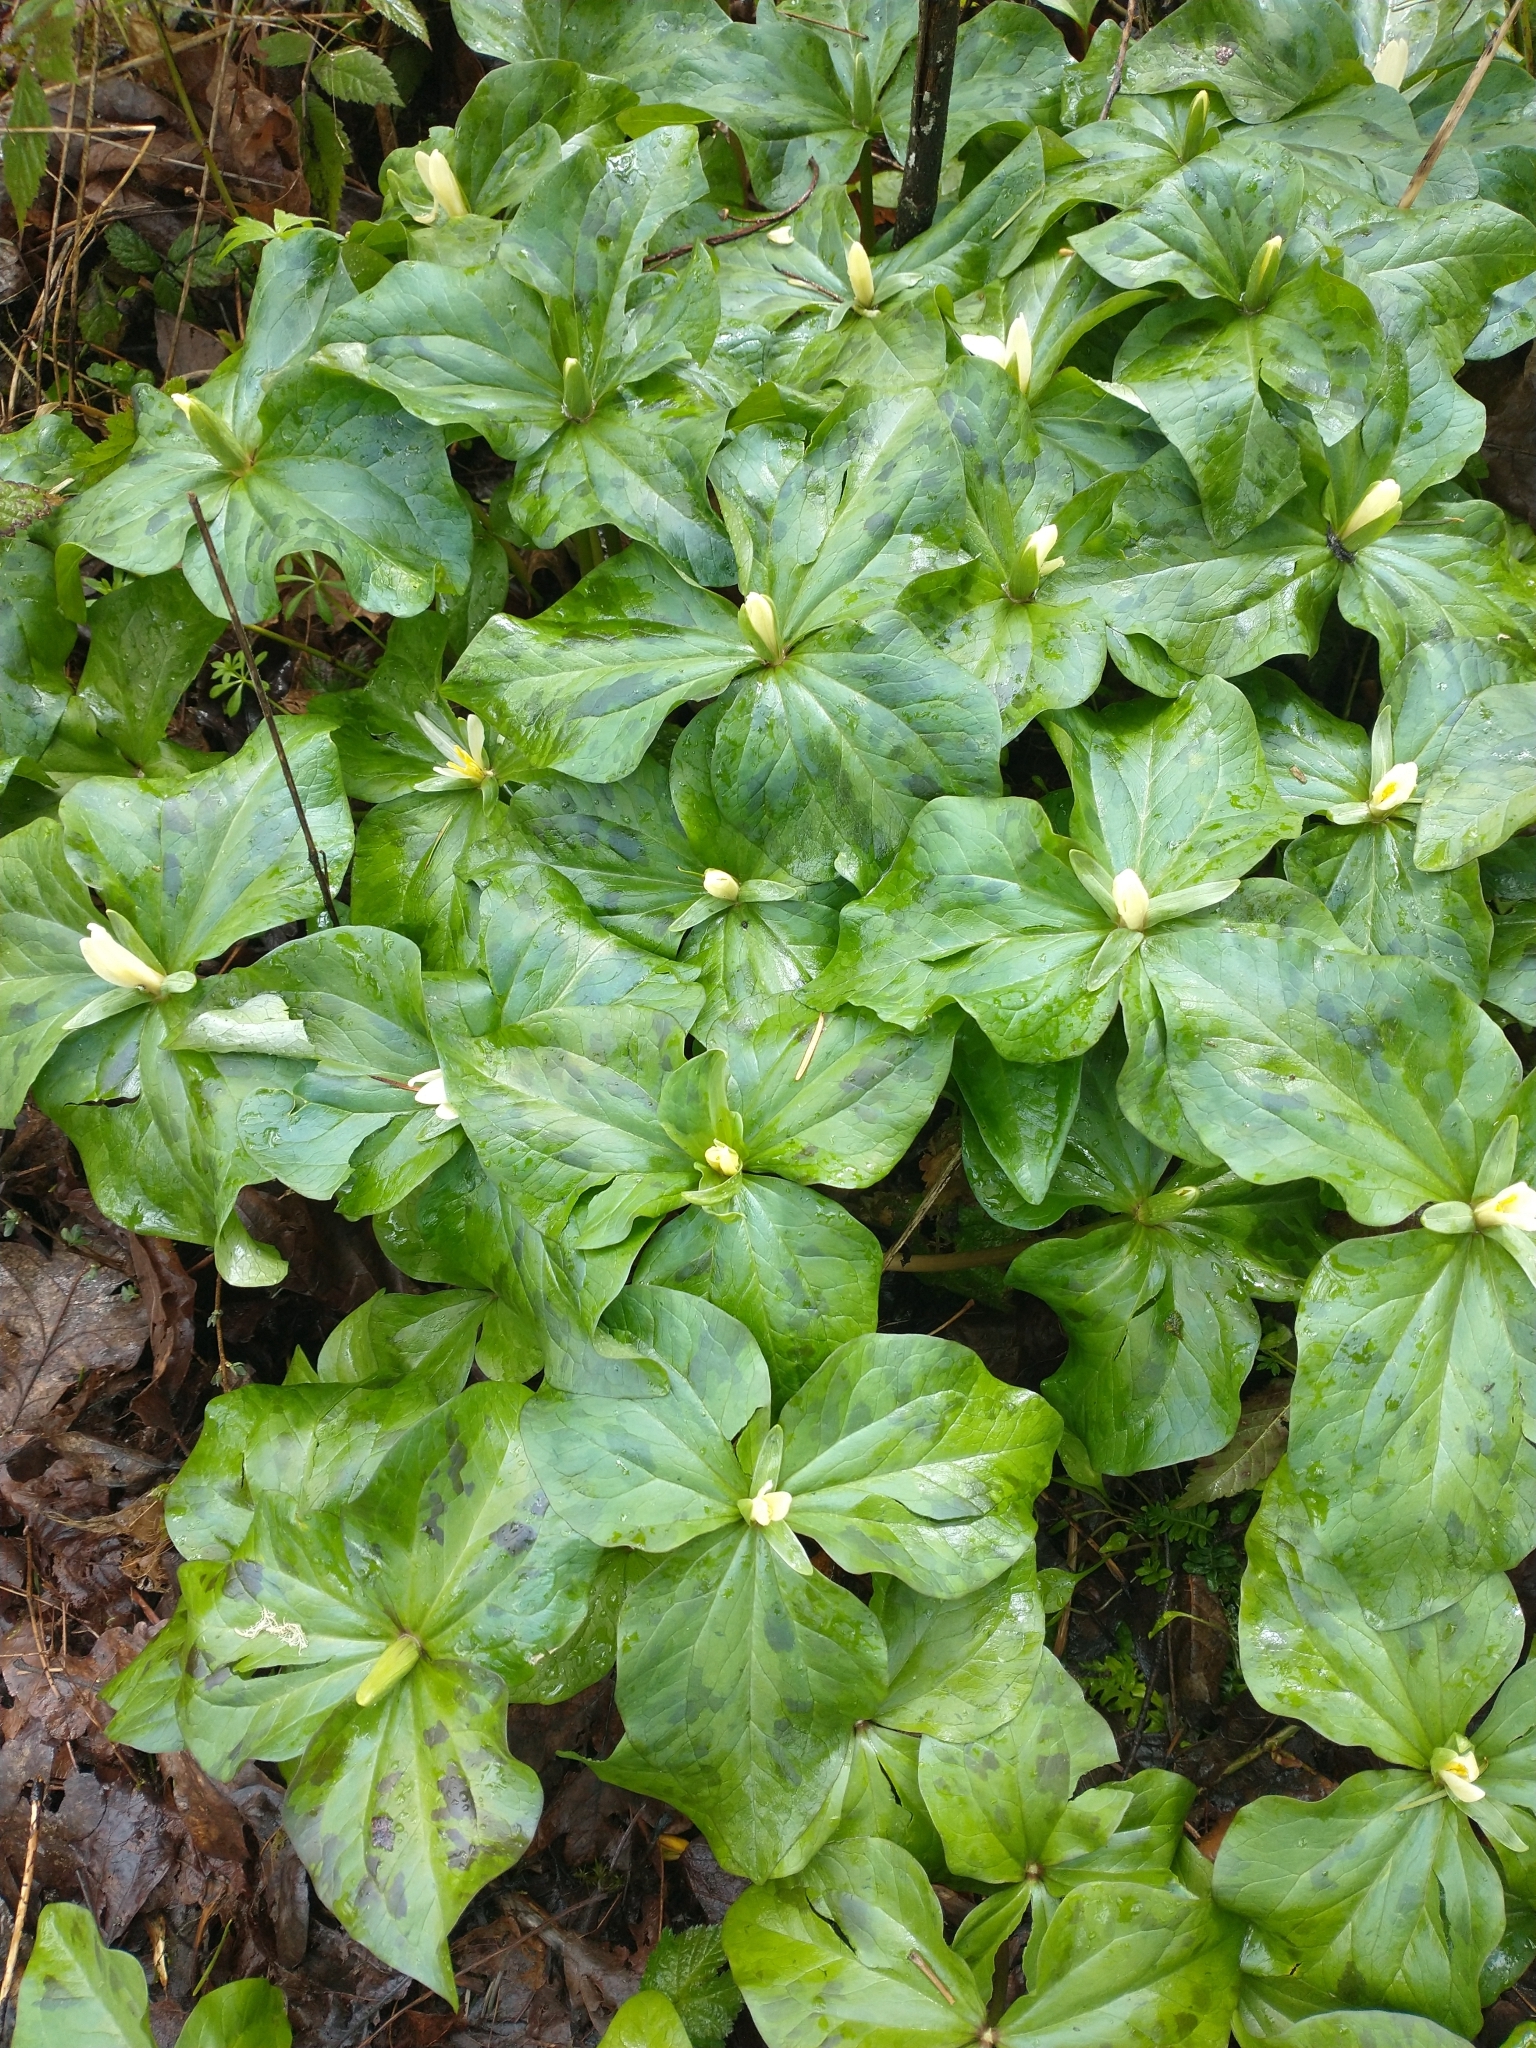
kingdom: Plantae
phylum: Tracheophyta
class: Liliopsida
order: Liliales
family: Melanthiaceae
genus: Trillium
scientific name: Trillium albidum
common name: Freeman's trillium
